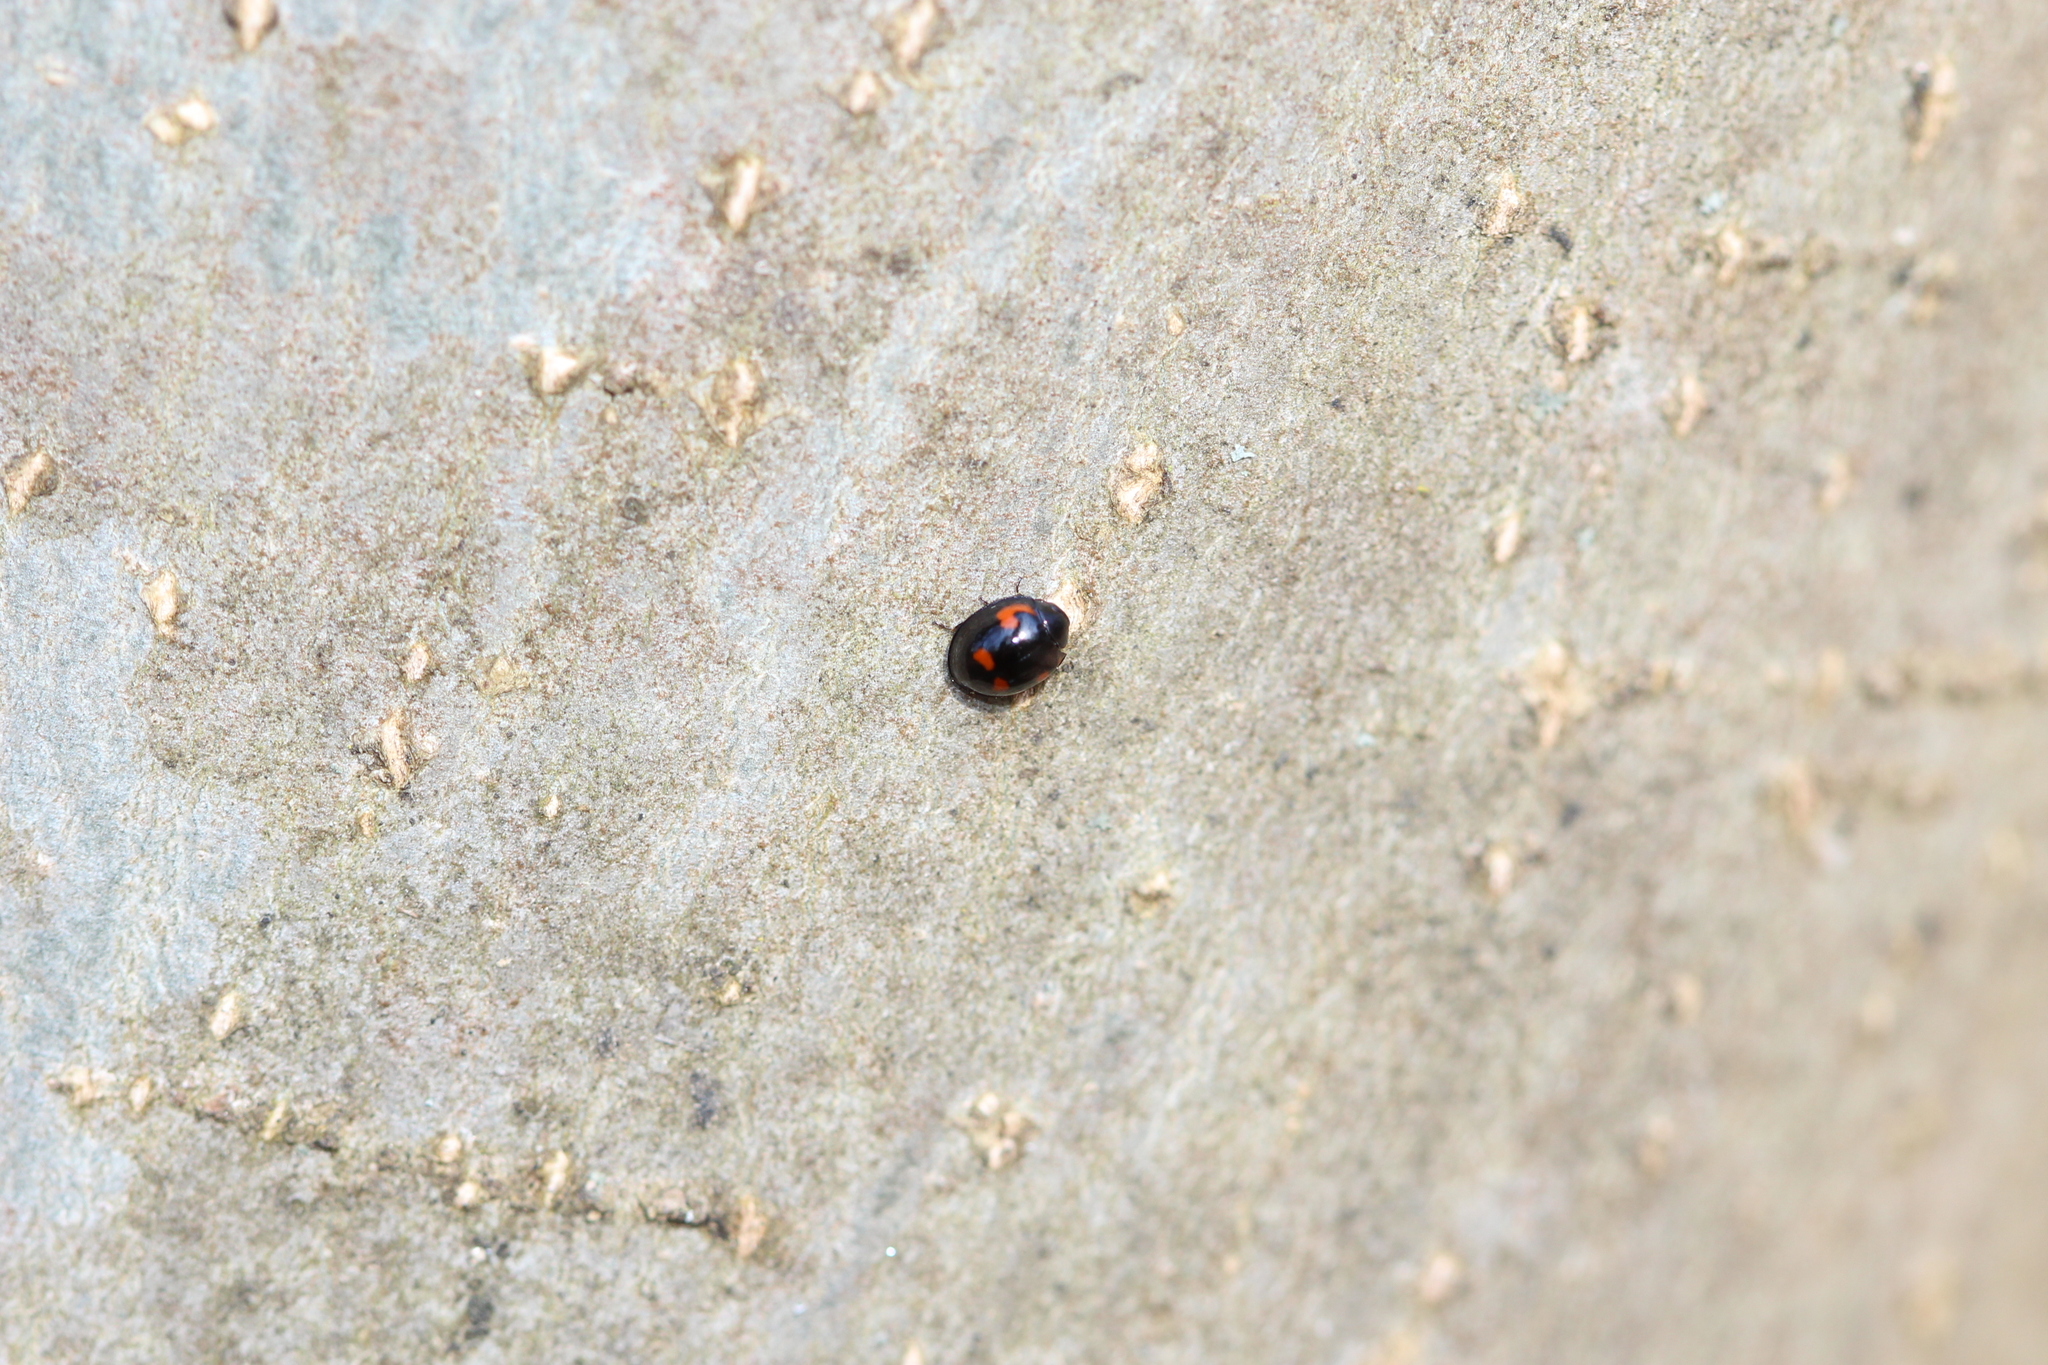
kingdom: Animalia
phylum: Arthropoda
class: Insecta
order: Coleoptera
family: Coccinellidae
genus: Brumus
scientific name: Brumus quadripustulatus
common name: Ladybird beetle
